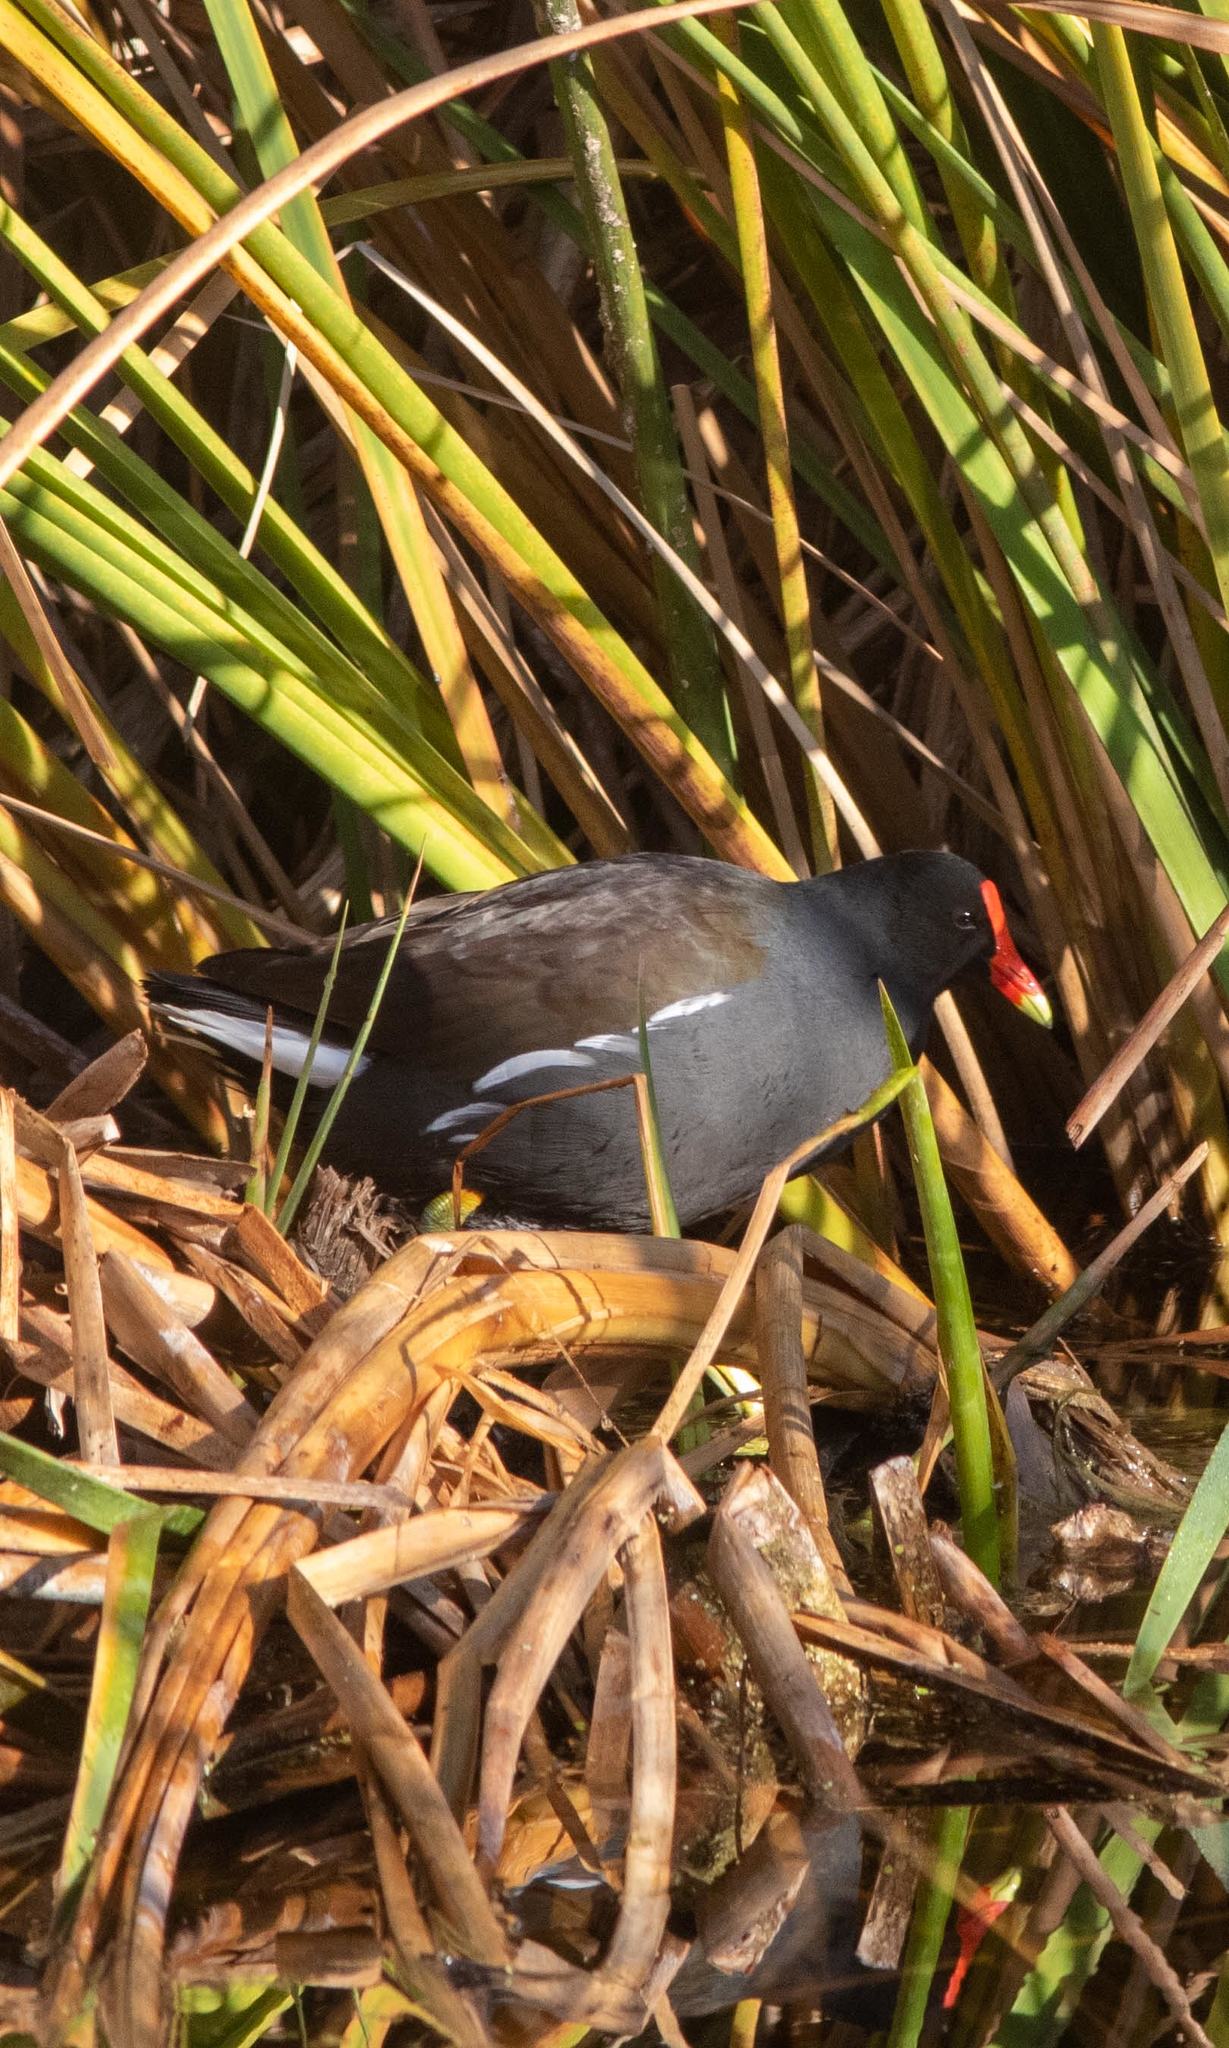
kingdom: Animalia
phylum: Chordata
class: Aves
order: Gruiformes
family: Rallidae
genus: Gallinula
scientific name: Gallinula chloropus
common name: Common moorhen
